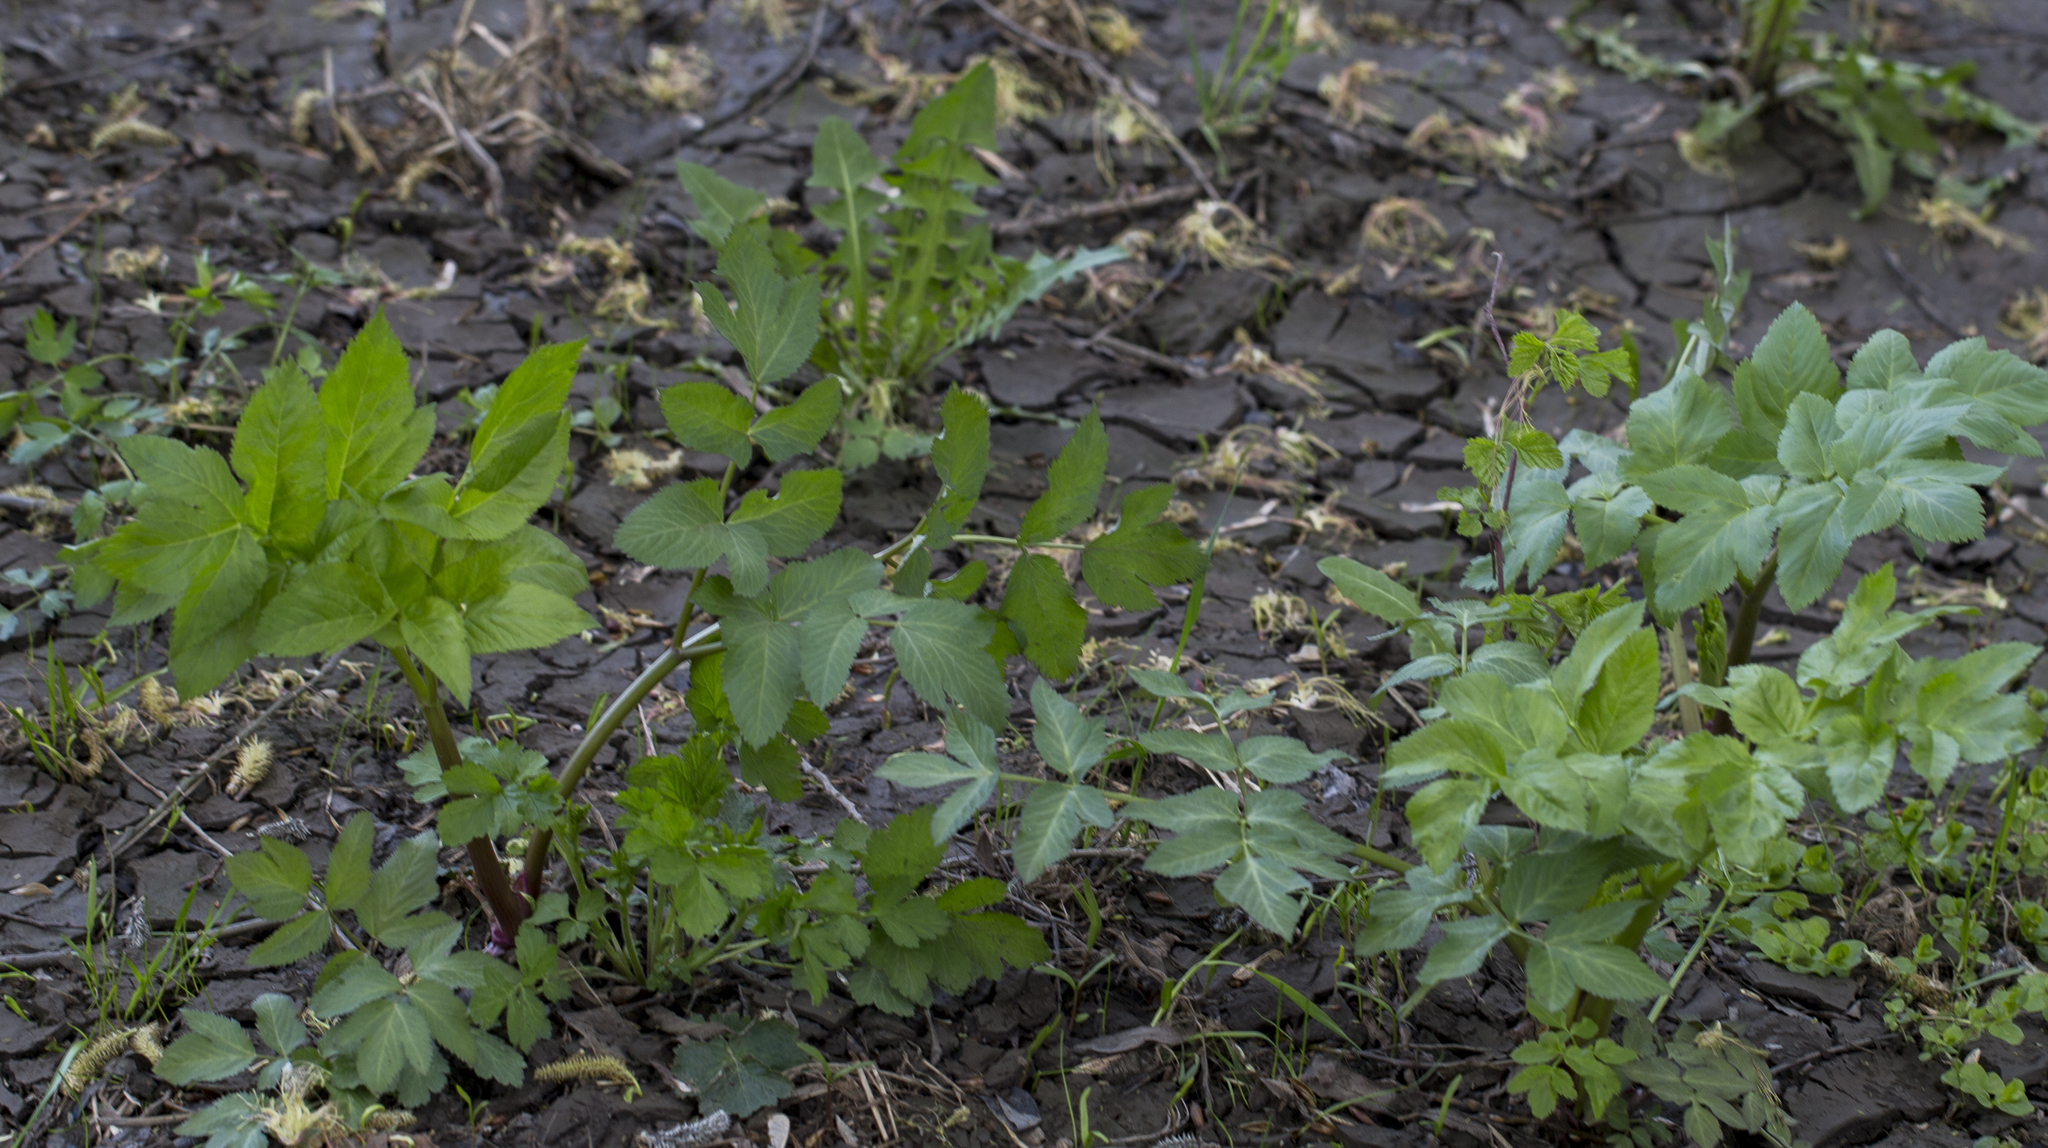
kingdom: Plantae
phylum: Tracheophyta
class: Magnoliopsida
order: Apiales
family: Apiaceae
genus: Angelica
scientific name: Angelica archangelica
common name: Garden angelica
